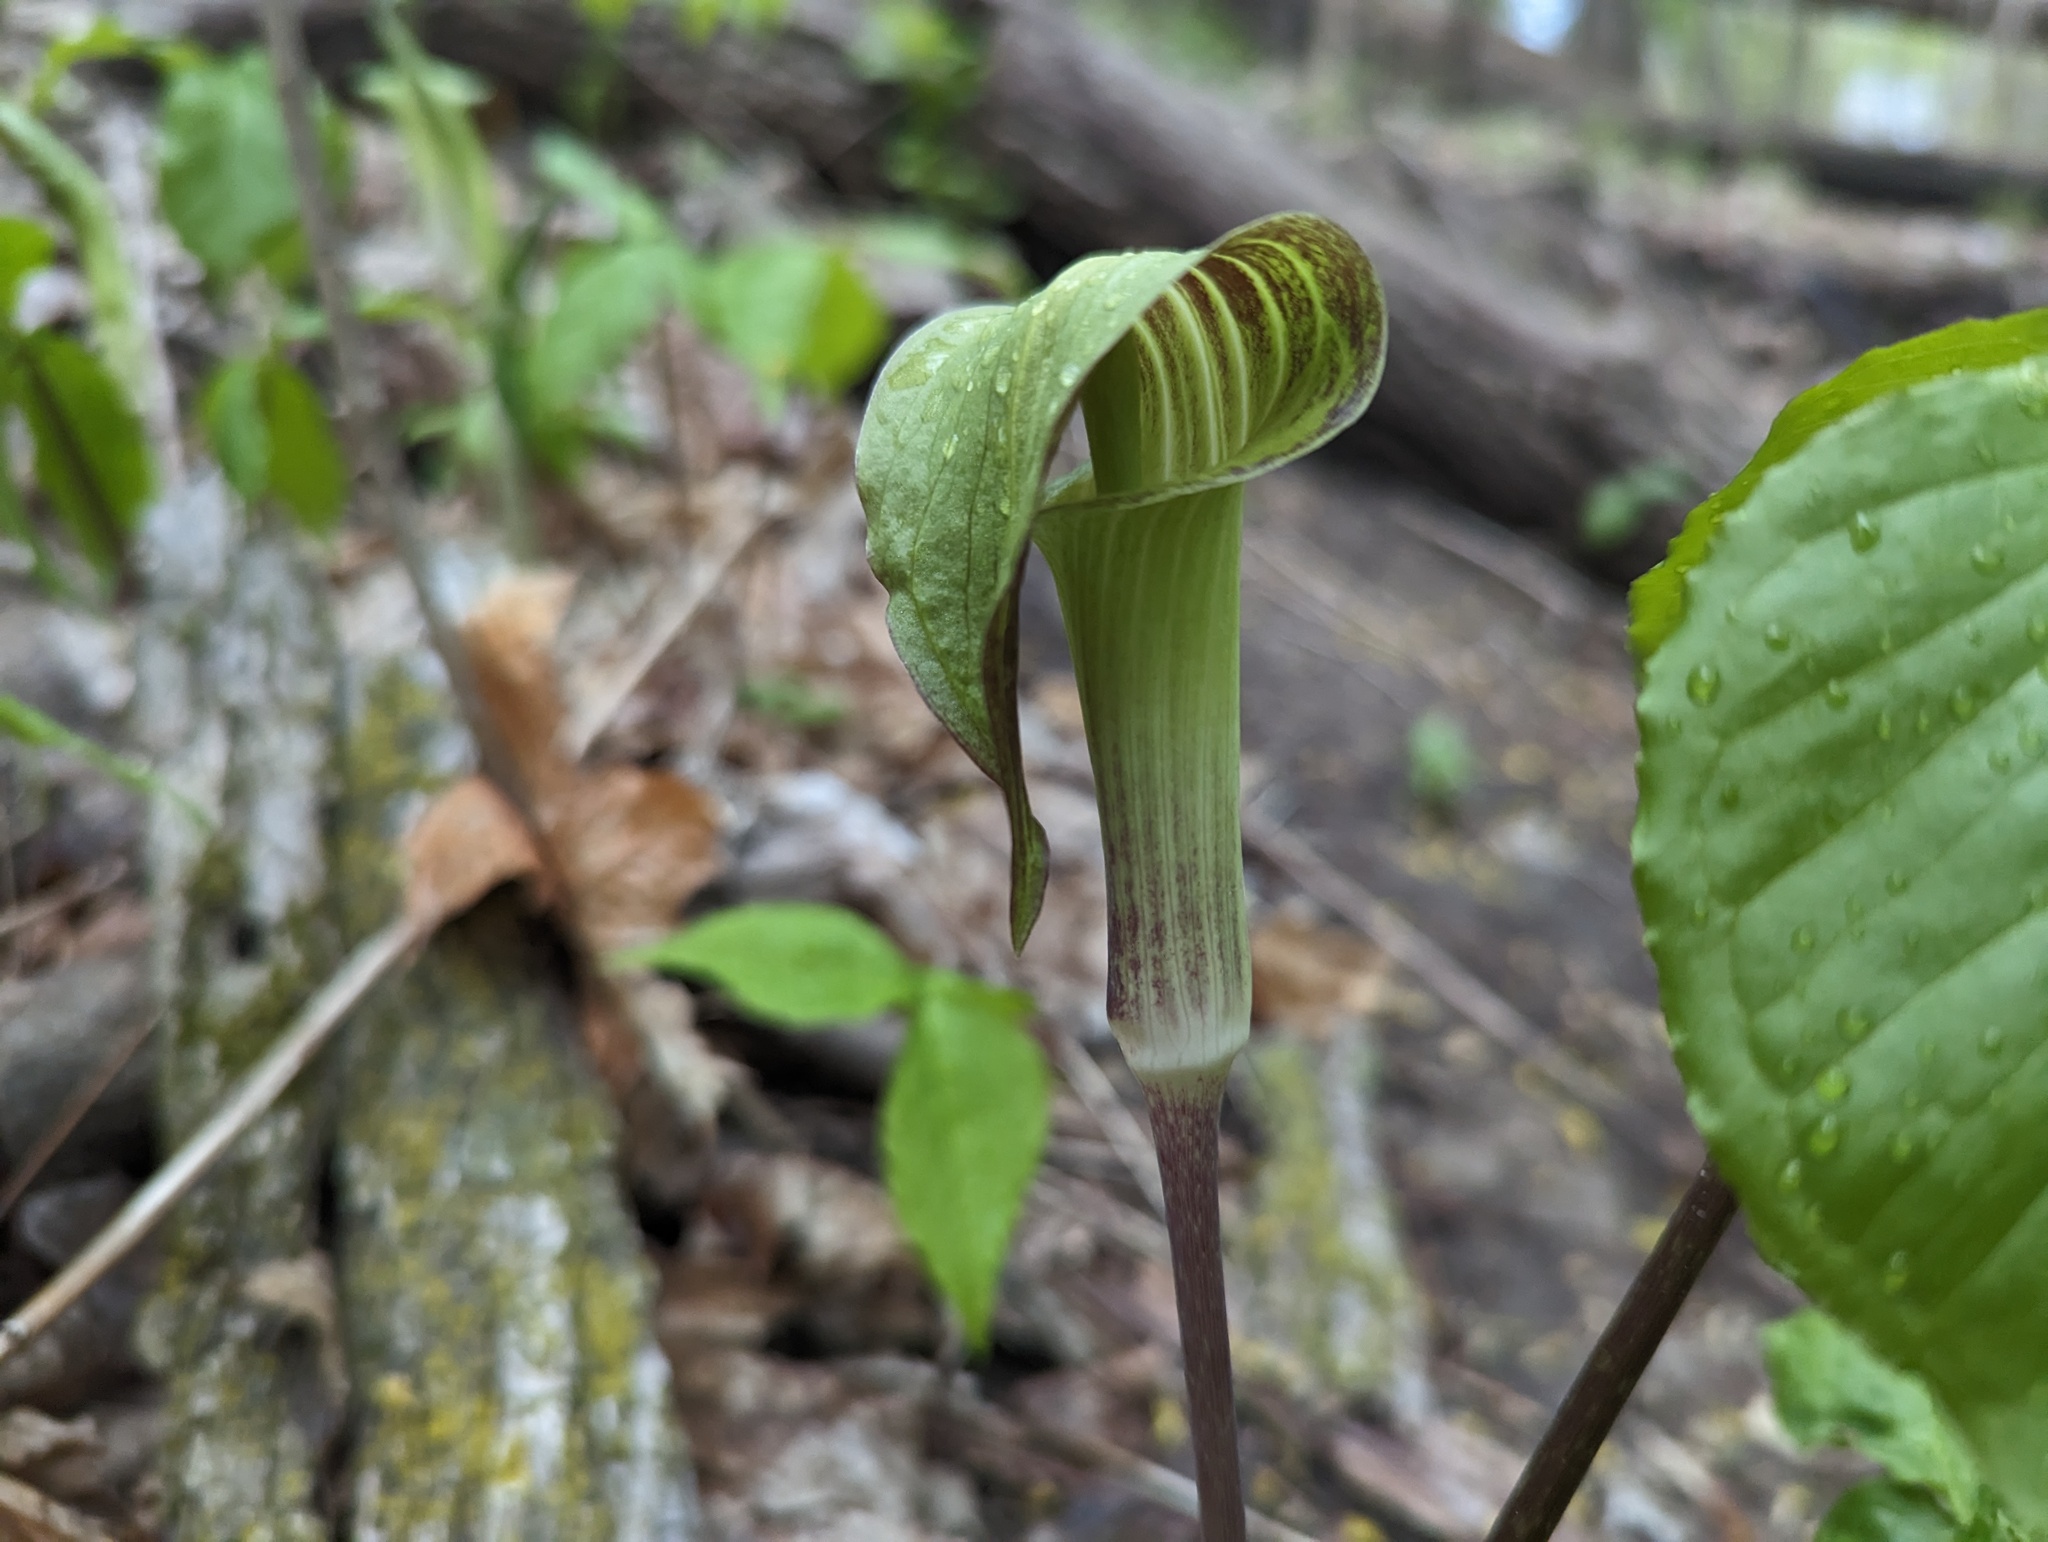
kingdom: Plantae
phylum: Tracheophyta
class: Liliopsida
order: Alismatales
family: Araceae
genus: Arisaema
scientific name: Arisaema triphyllum
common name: Jack-in-the-pulpit
